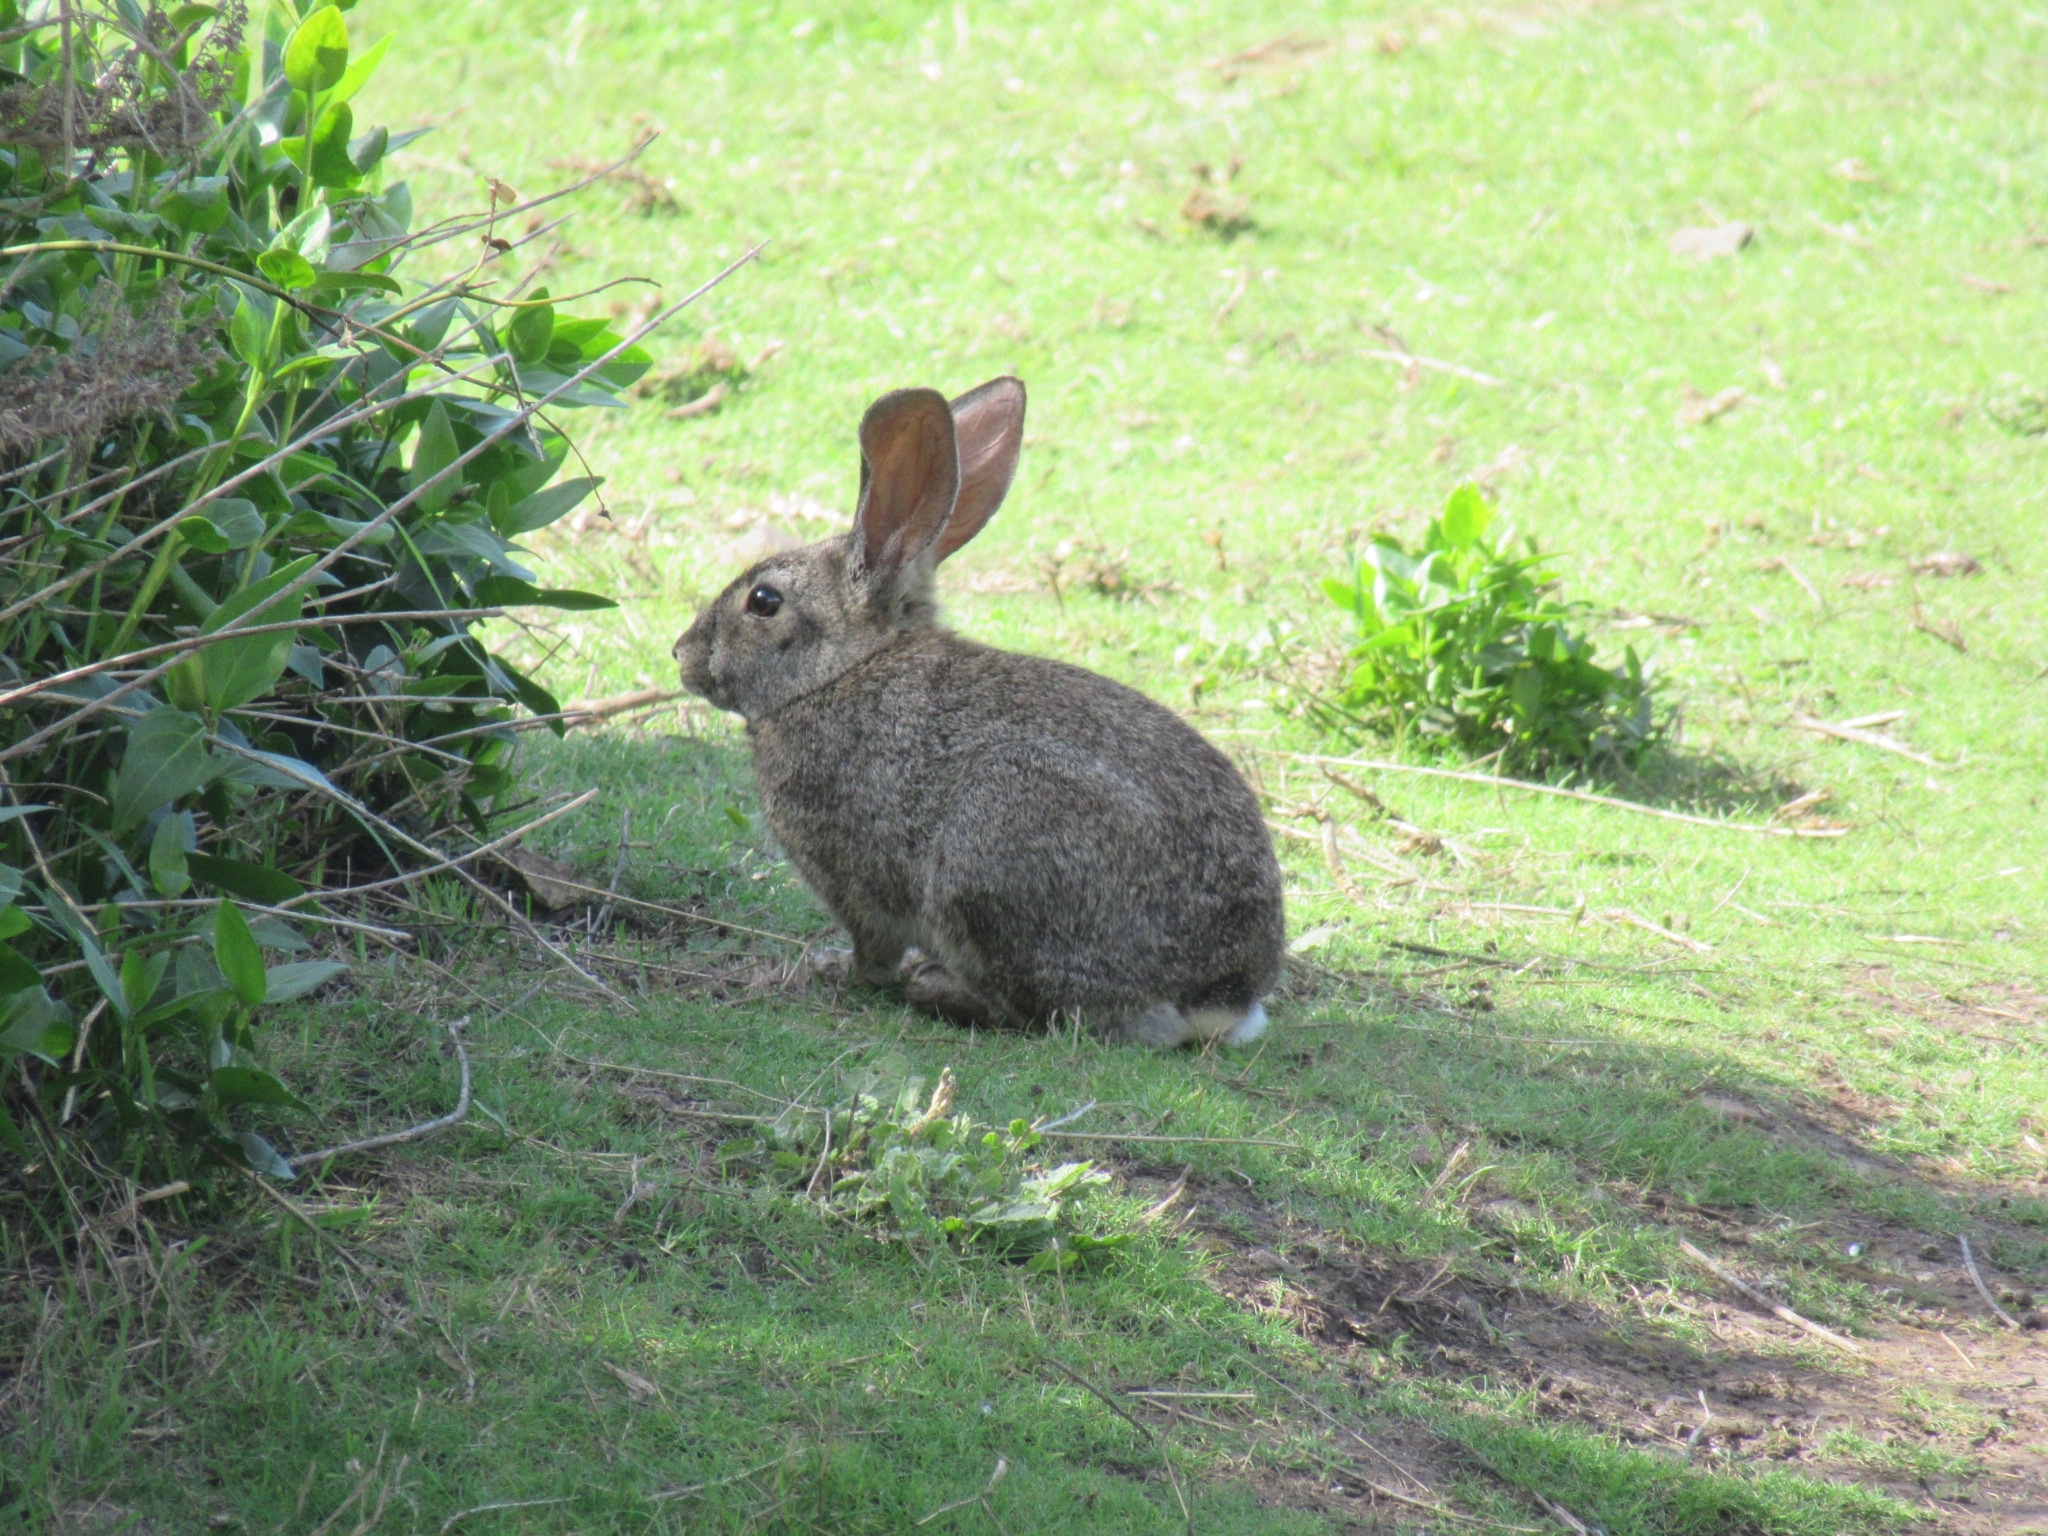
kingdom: Animalia
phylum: Chordata
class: Mammalia
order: Lagomorpha
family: Leporidae
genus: Sylvilagus
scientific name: Sylvilagus bachmani
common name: Brush rabbit
